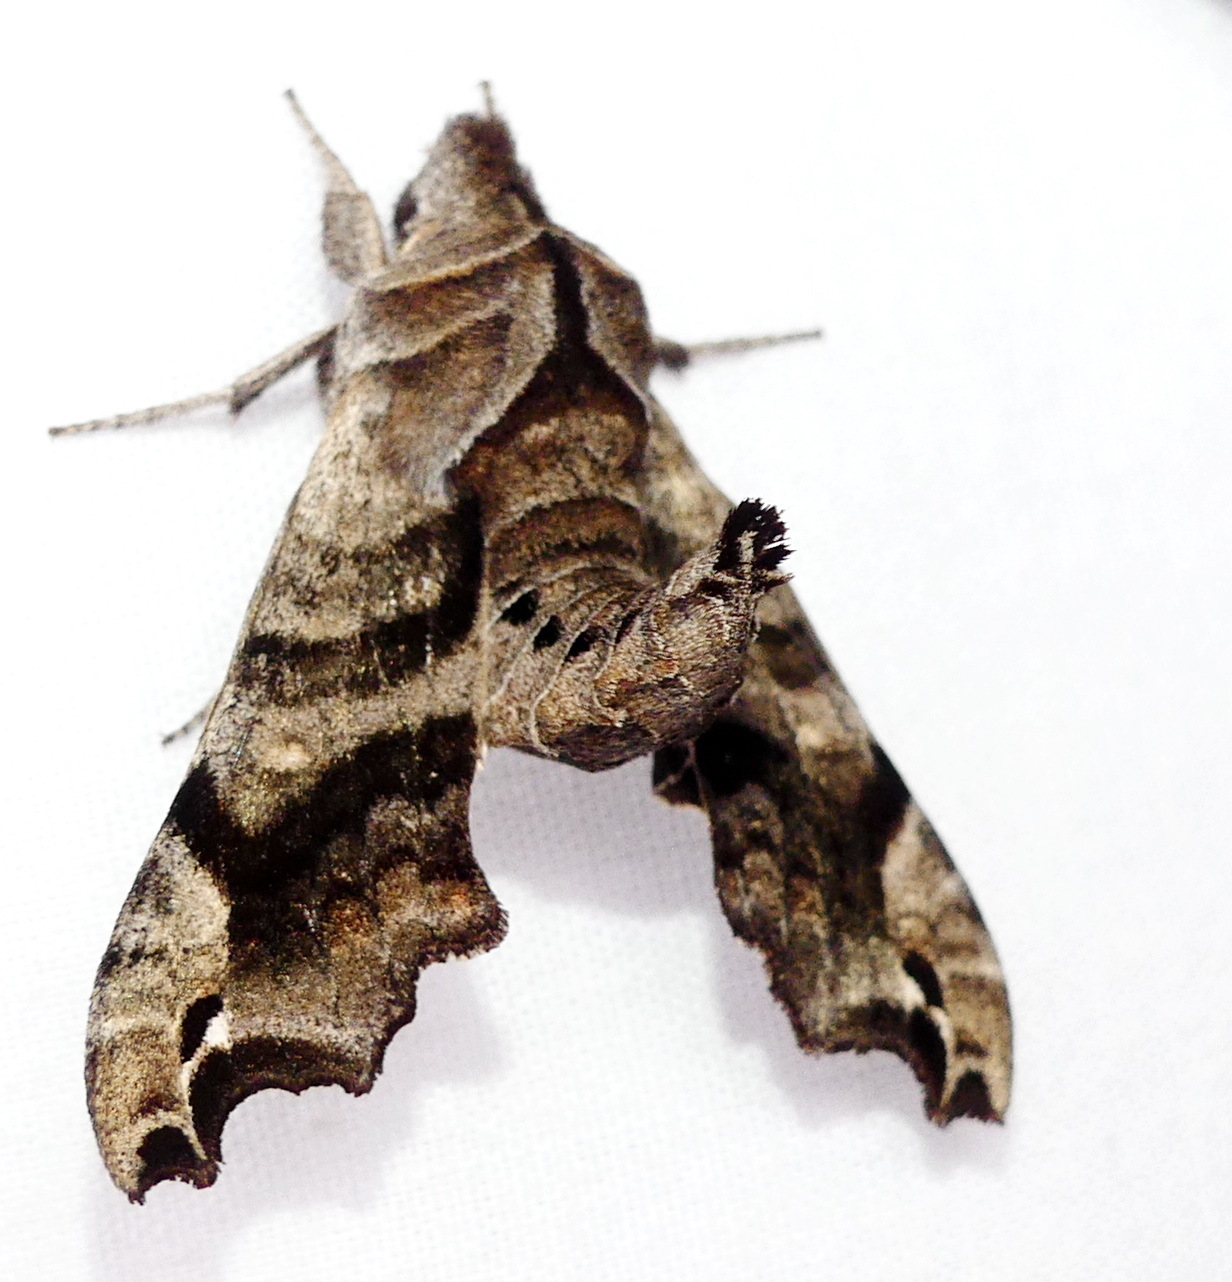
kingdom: Animalia
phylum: Arthropoda
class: Insecta
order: Lepidoptera
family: Sphingidae
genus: Deidamia
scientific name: Deidamia inscriptum
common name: Lettered sphinx
